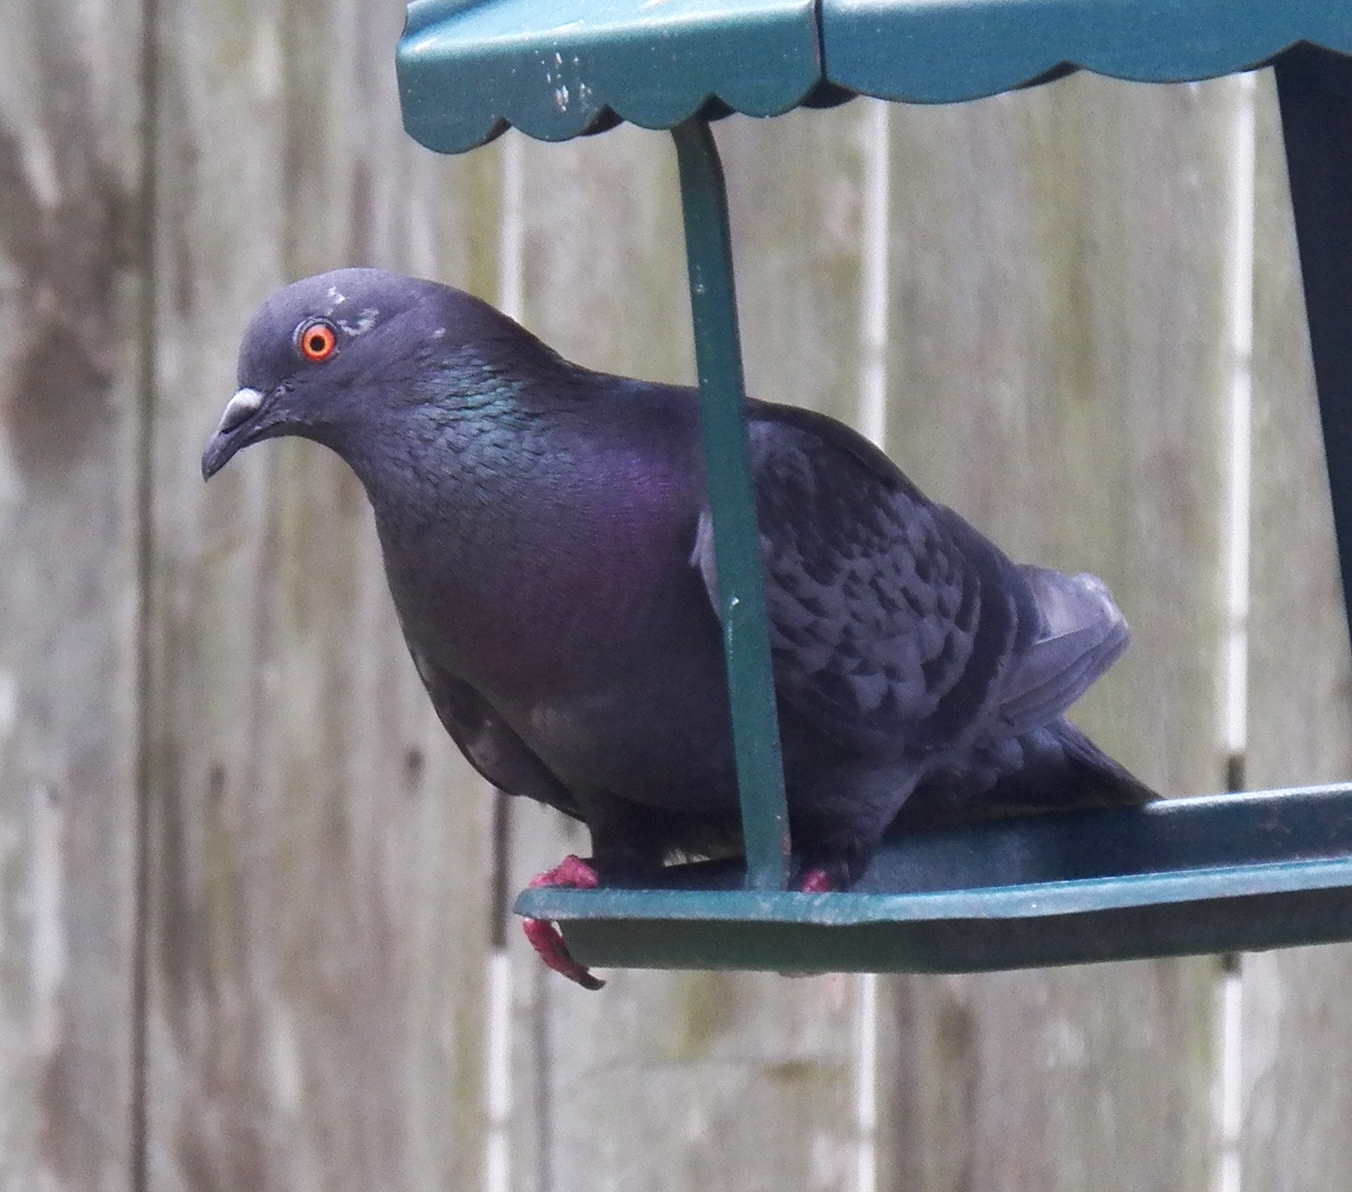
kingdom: Animalia
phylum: Chordata
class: Aves
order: Columbiformes
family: Columbidae
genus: Columba
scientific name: Columba livia
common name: Rock pigeon
